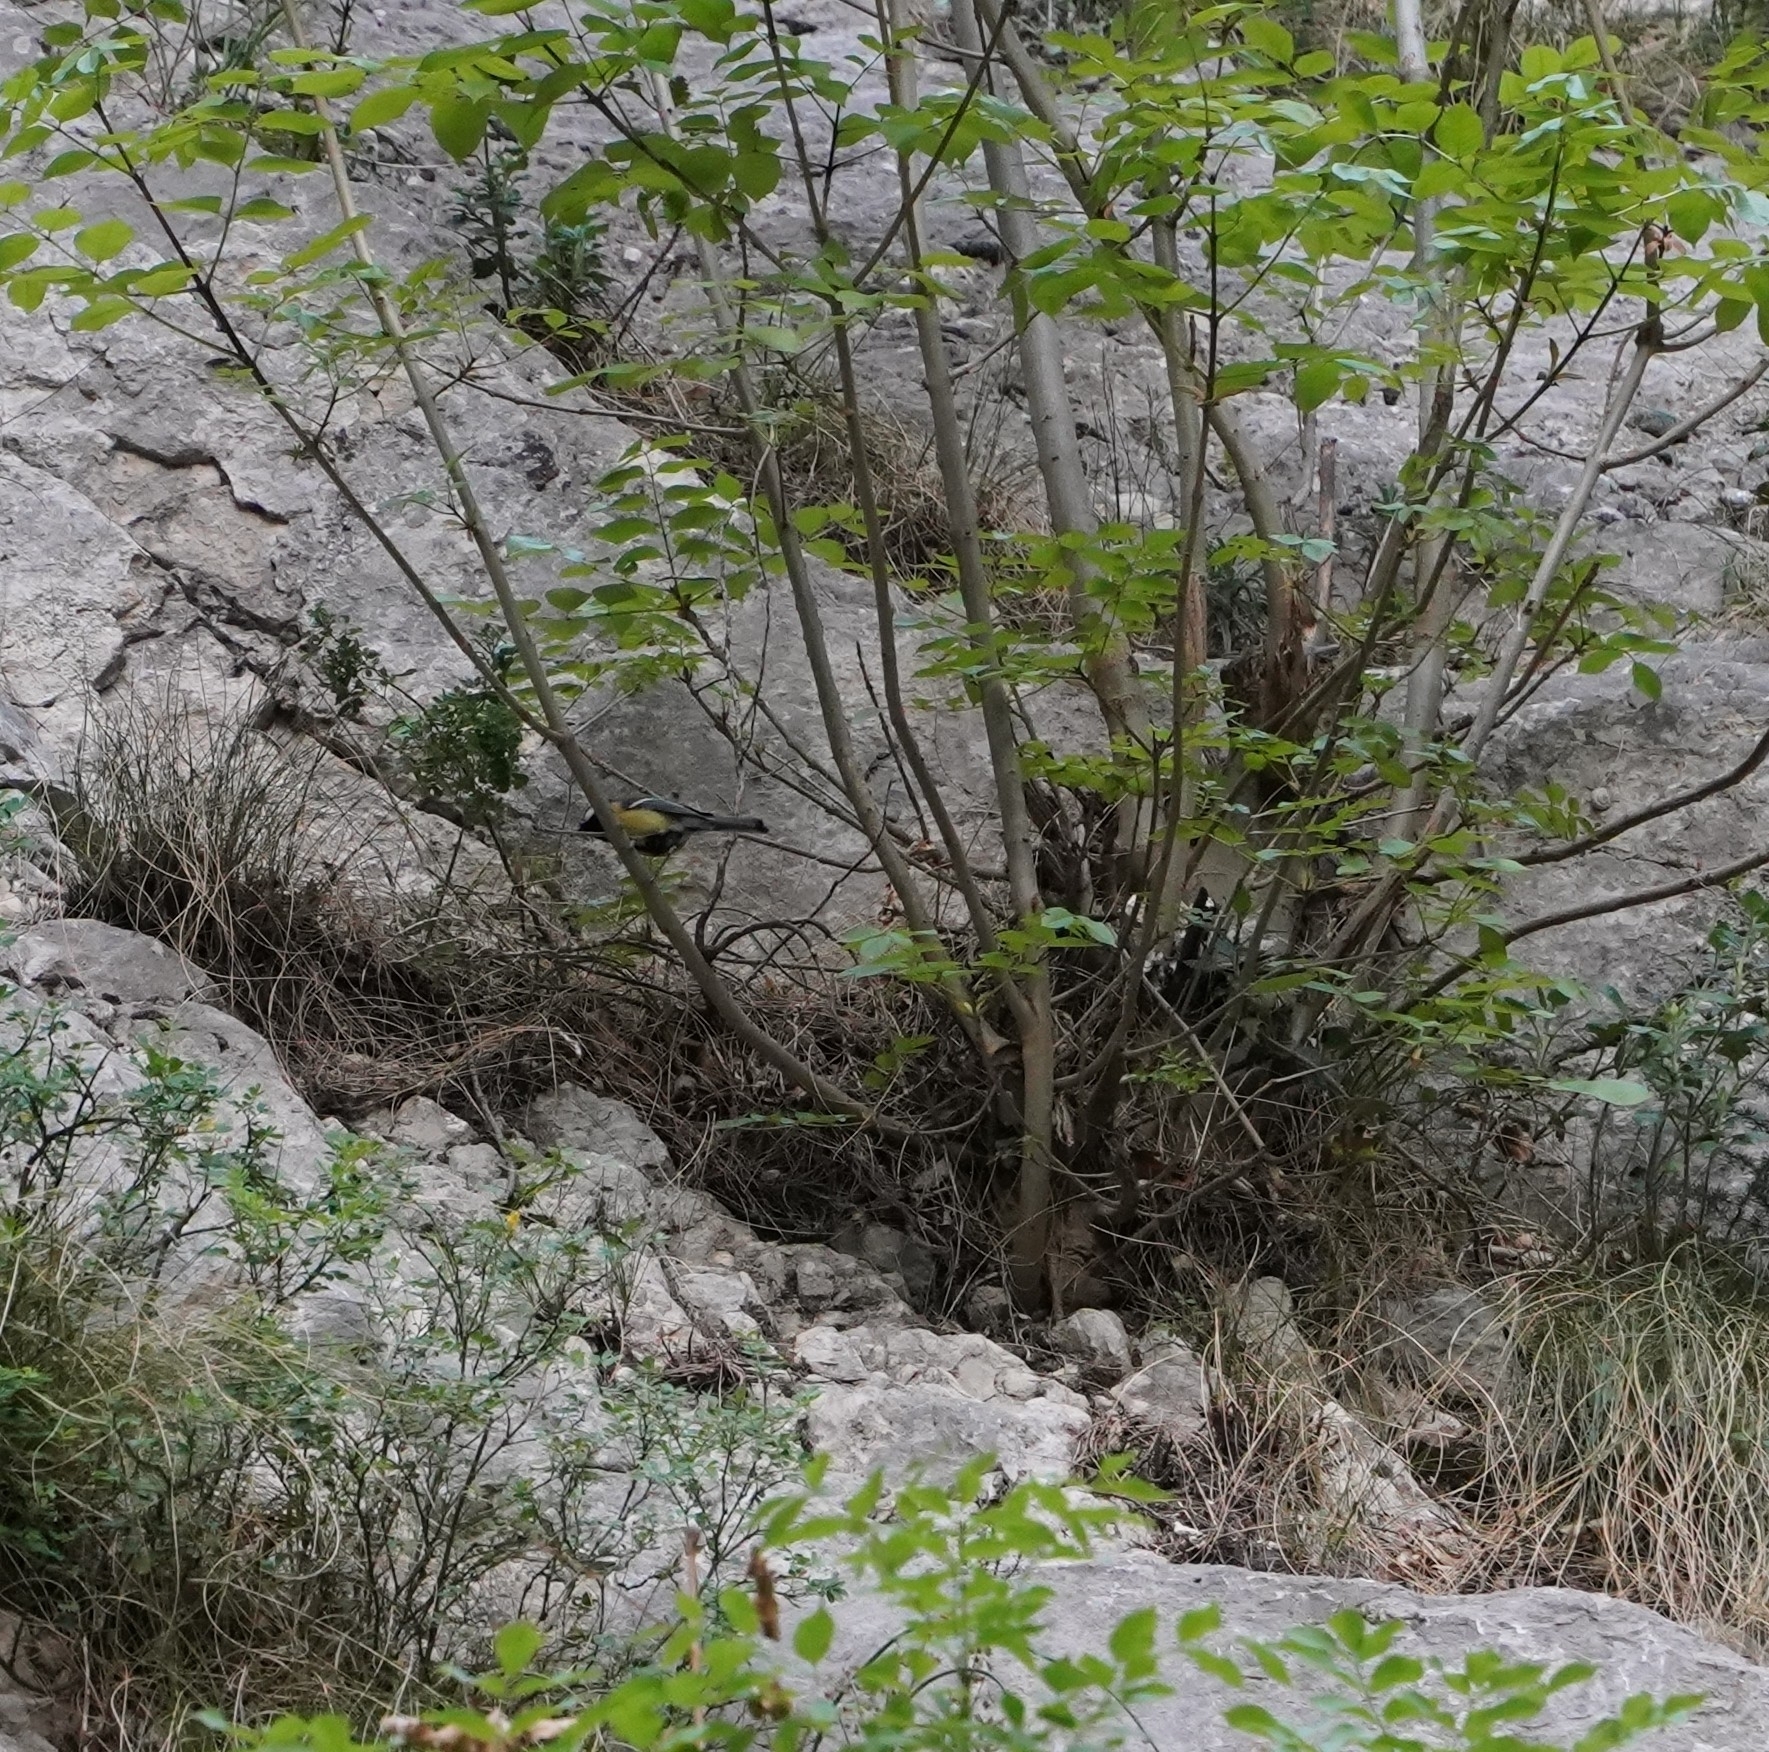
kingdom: Animalia
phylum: Chordata
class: Aves
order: Passeriformes
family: Paridae
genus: Parus
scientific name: Parus major
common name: Great tit
